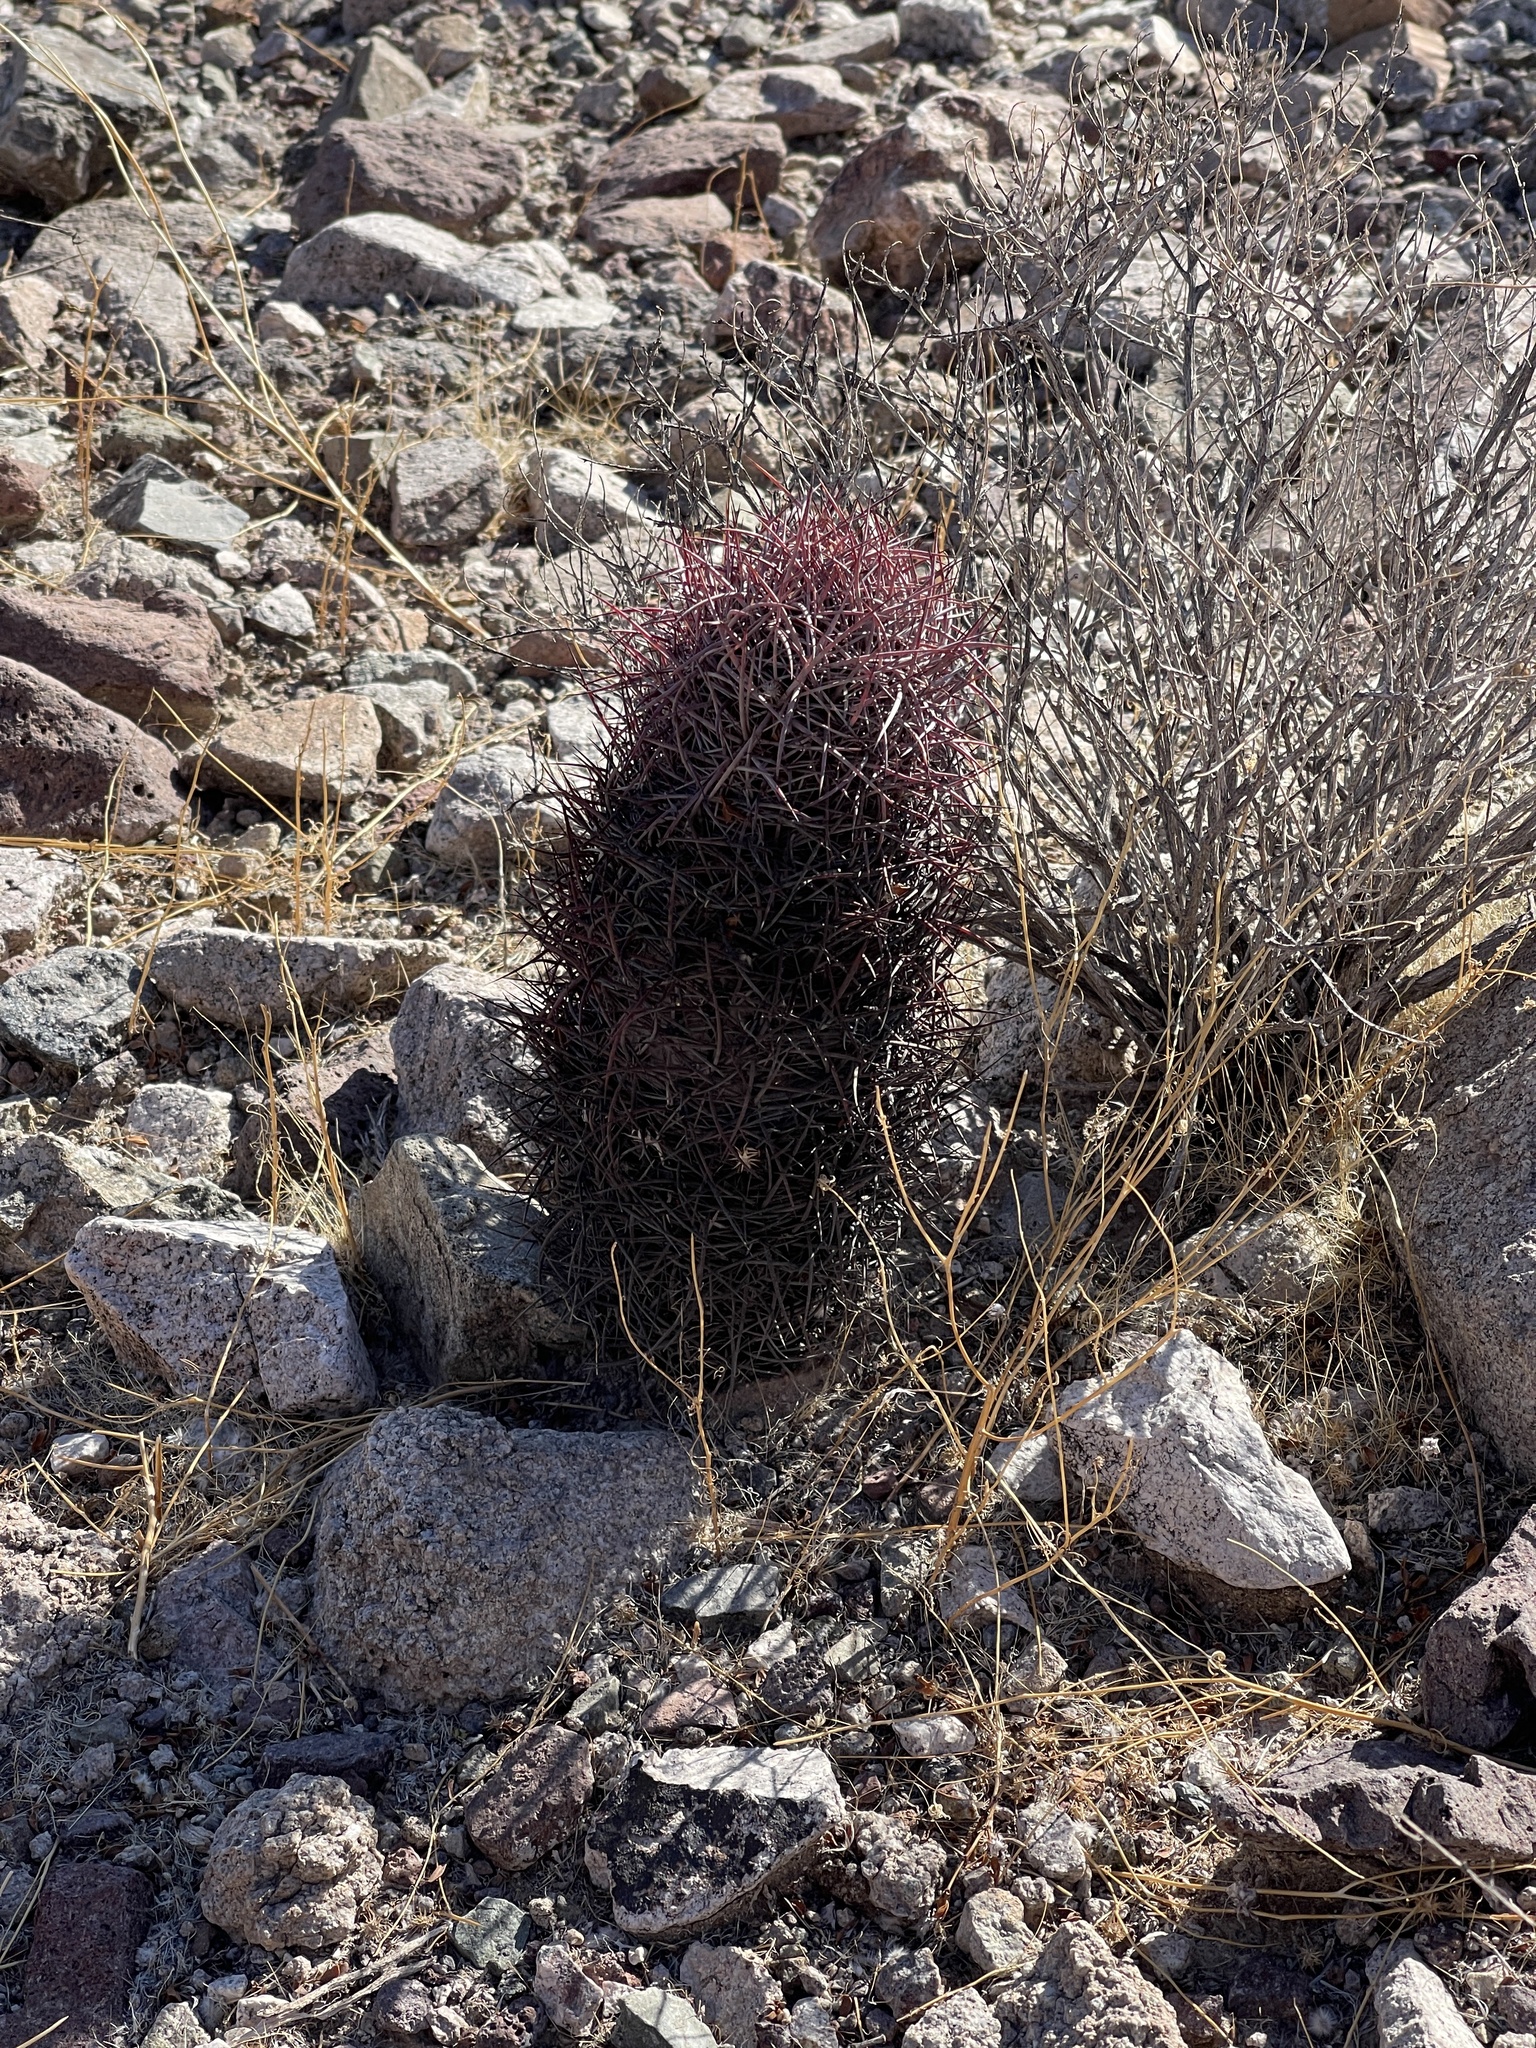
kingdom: Plantae
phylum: Tracheophyta
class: Magnoliopsida
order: Caryophyllales
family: Cactaceae
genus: Sclerocactus
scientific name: Sclerocactus johnsonii
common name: Eight-spine fishhook cactus
